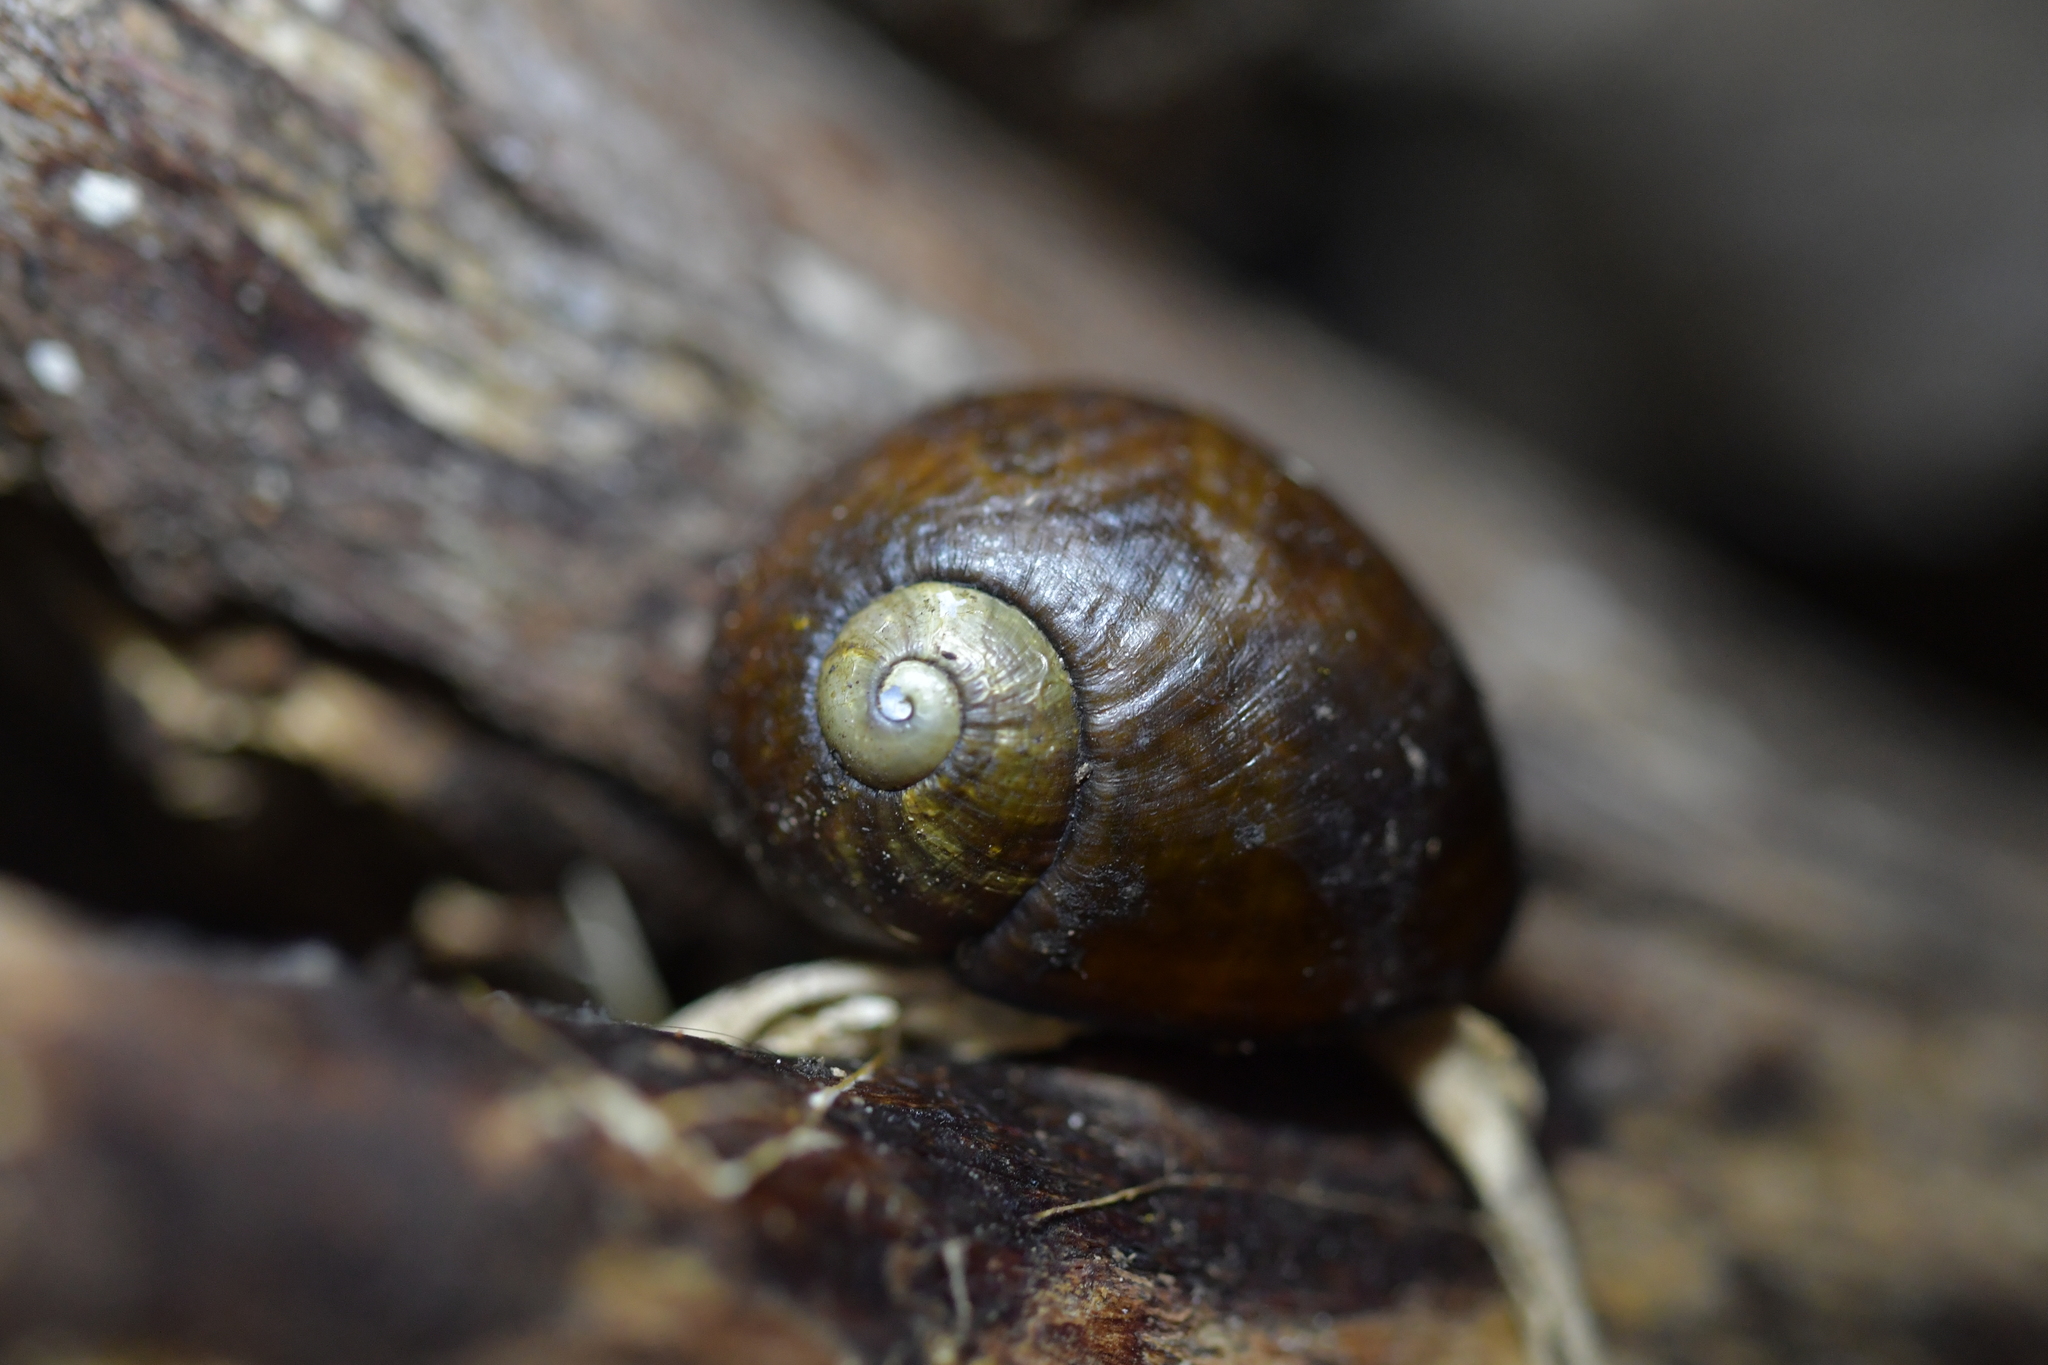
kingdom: Animalia
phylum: Mollusca
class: Gastropoda
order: Stylommatophora
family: Rhytididae
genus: Wainuia
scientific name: Wainuia urnula
